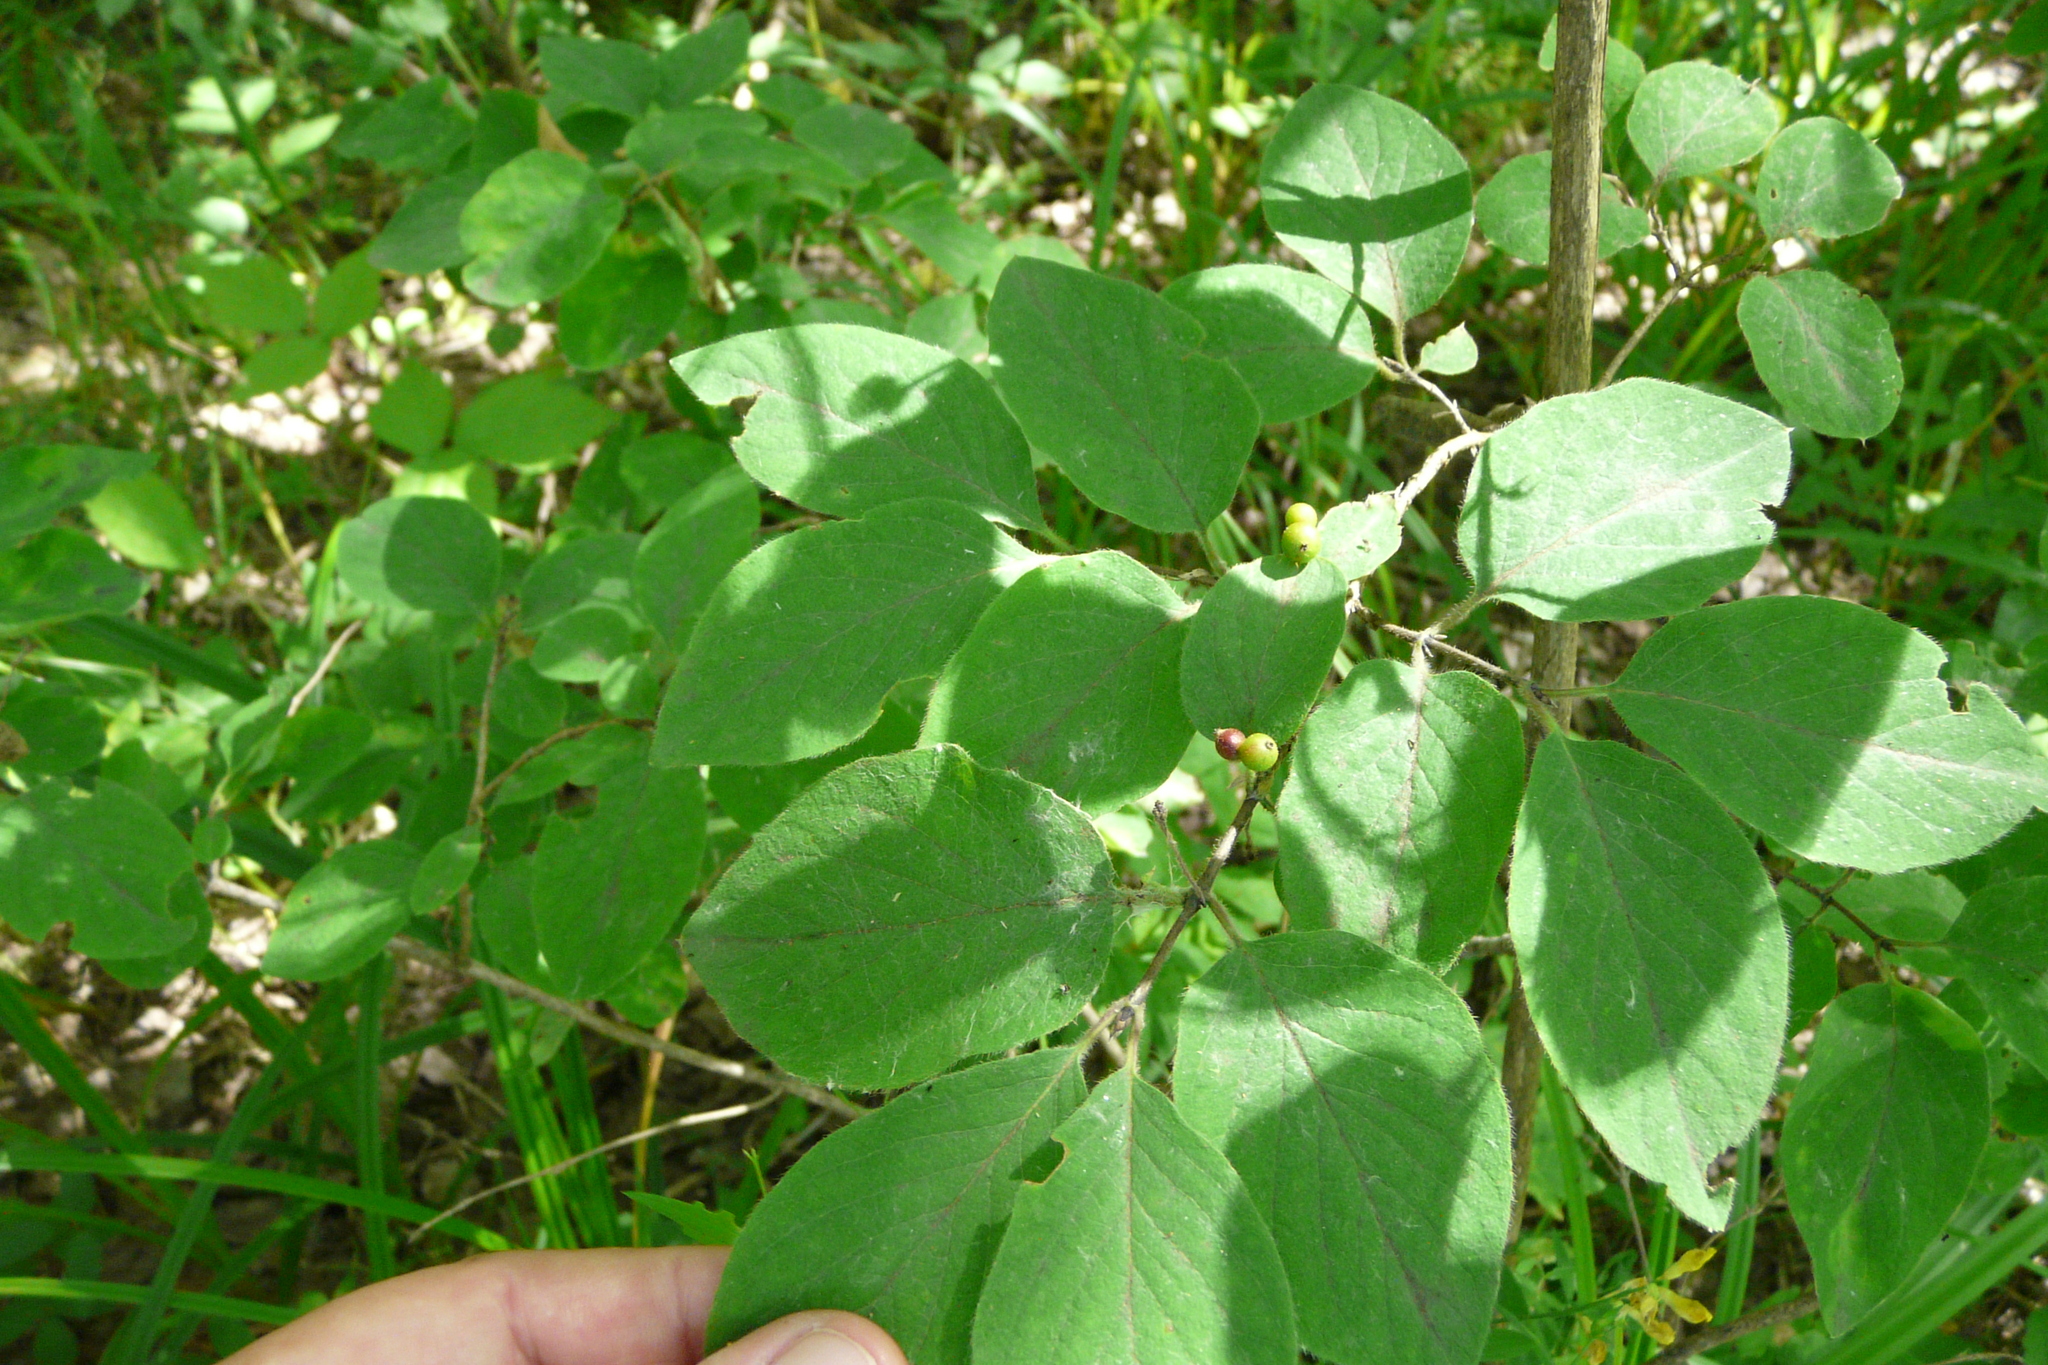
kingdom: Plantae
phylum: Tracheophyta
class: Magnoliopsida
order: Dipsacales
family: Caprifoliaceae
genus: Lonicera
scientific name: Lonicera xylosteum
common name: Fly honeysuckle
